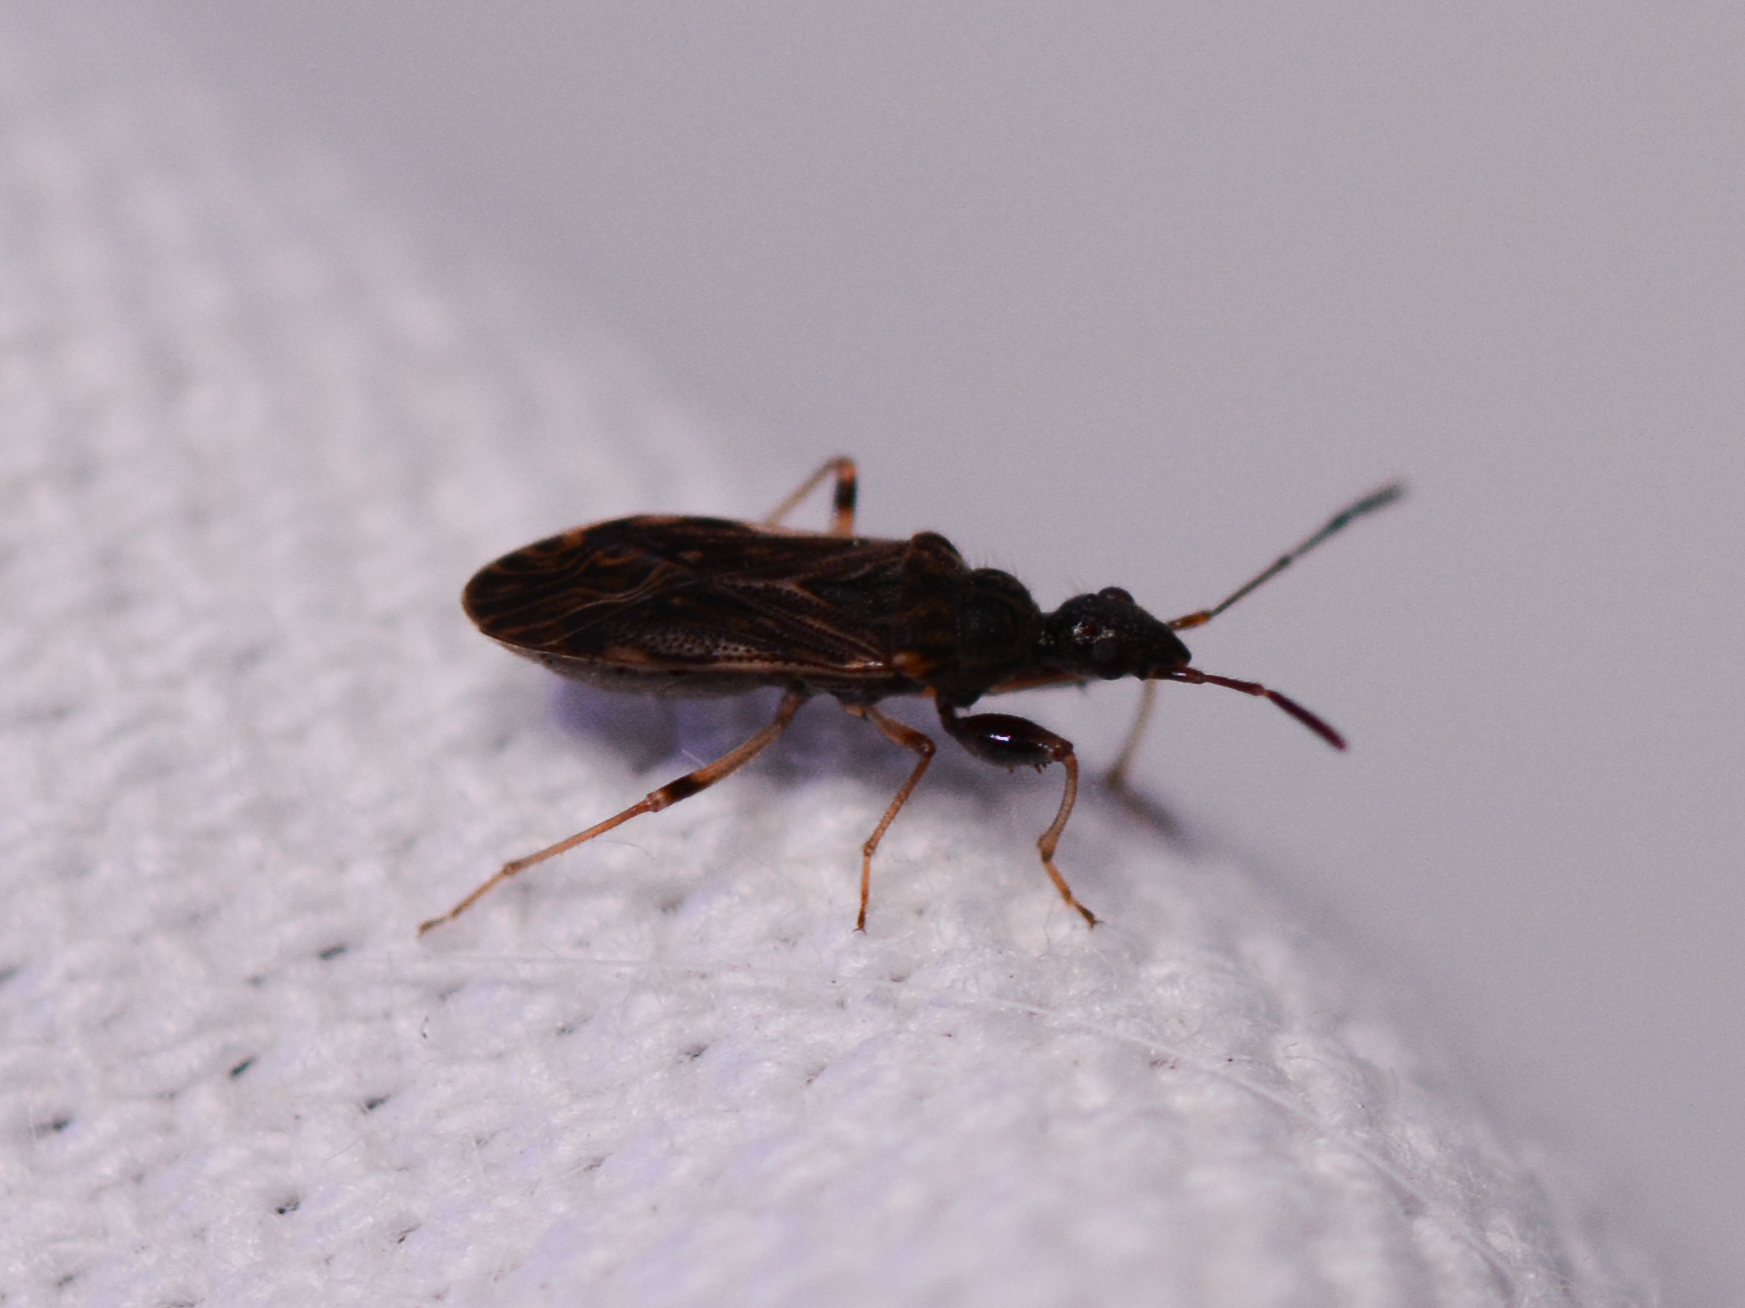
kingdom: Animalia
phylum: Arthropoda
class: Insecta
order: Hemiptera
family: Rhyparochromidae
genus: Heraeus
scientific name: Heraeus plebejus
